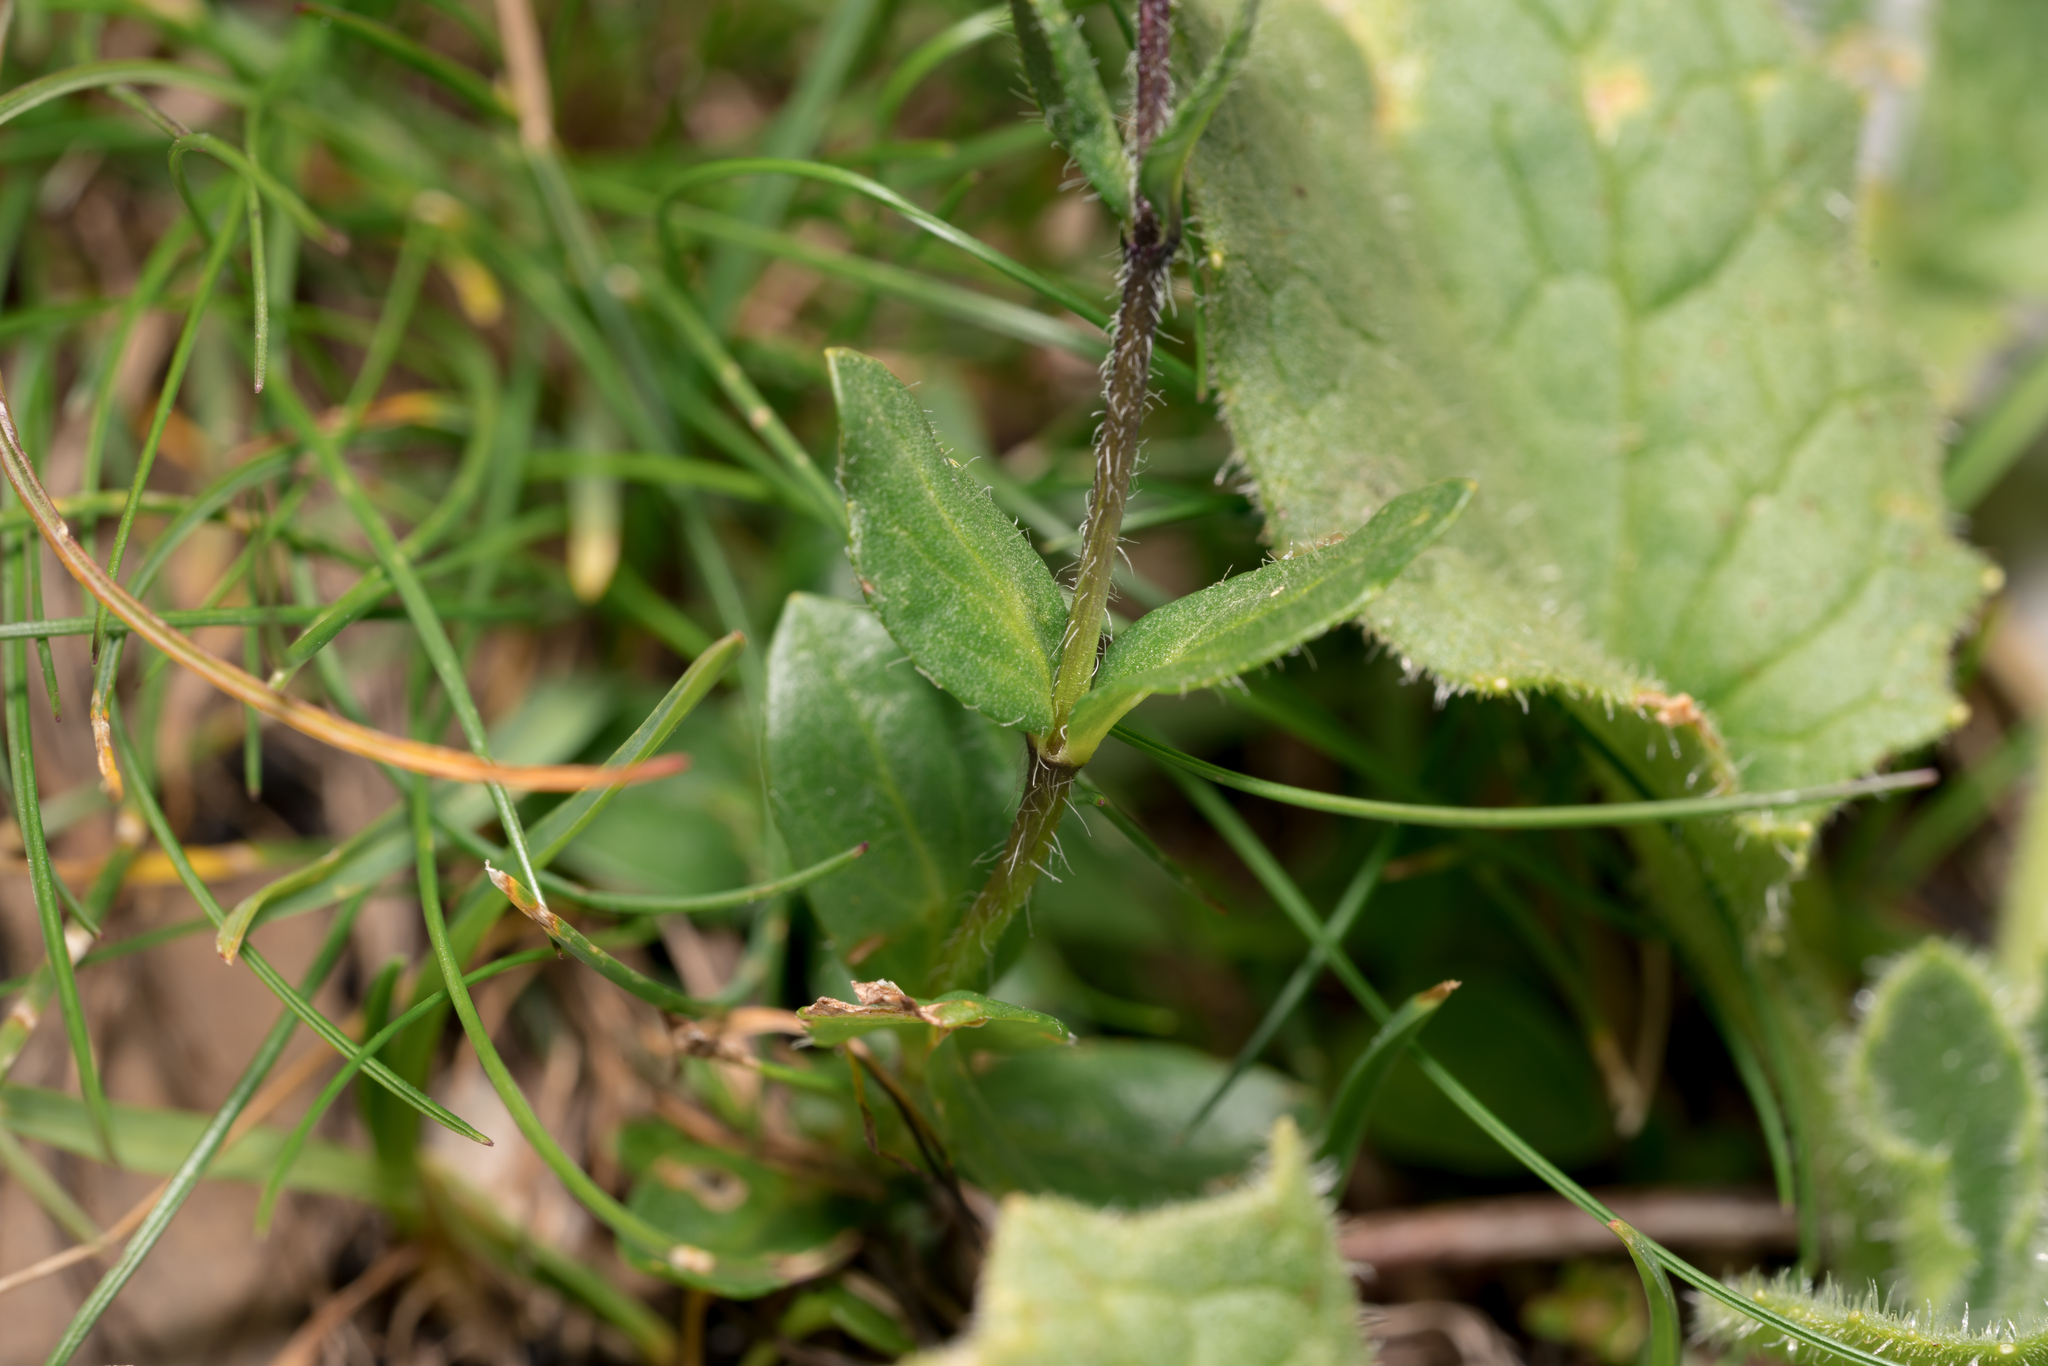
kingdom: Plantae
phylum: Tracheophyta
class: Magnoliopsida
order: Lamiales
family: Plantaginaceae
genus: Veronica
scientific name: Veronica alpina
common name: Alpine speedwell
